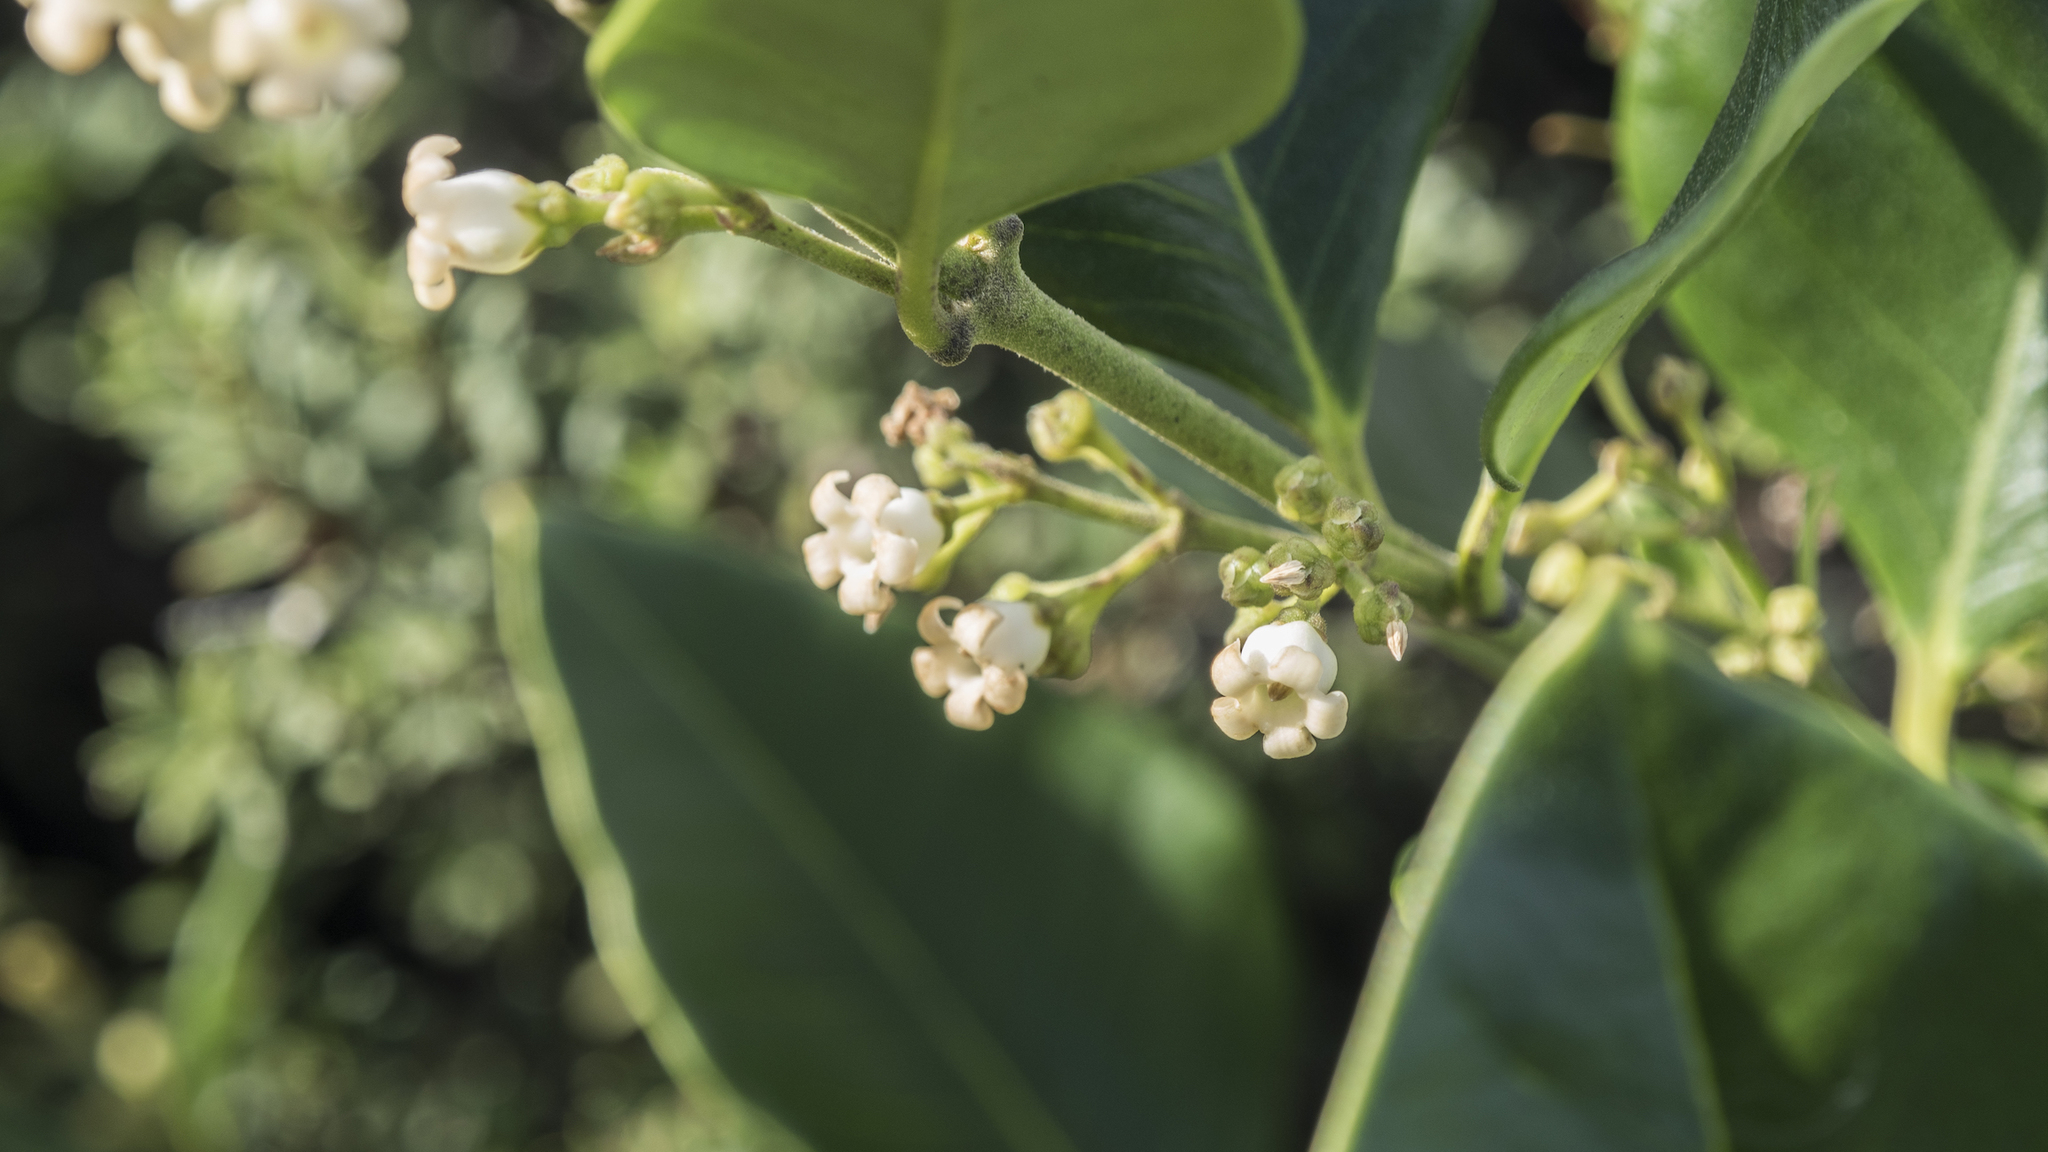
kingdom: Plantae
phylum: Tracheophyta
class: Magnoliopsida
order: Gentianales
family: Apocynaceae
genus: Parsonsia
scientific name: Parsonsia heterophylla
